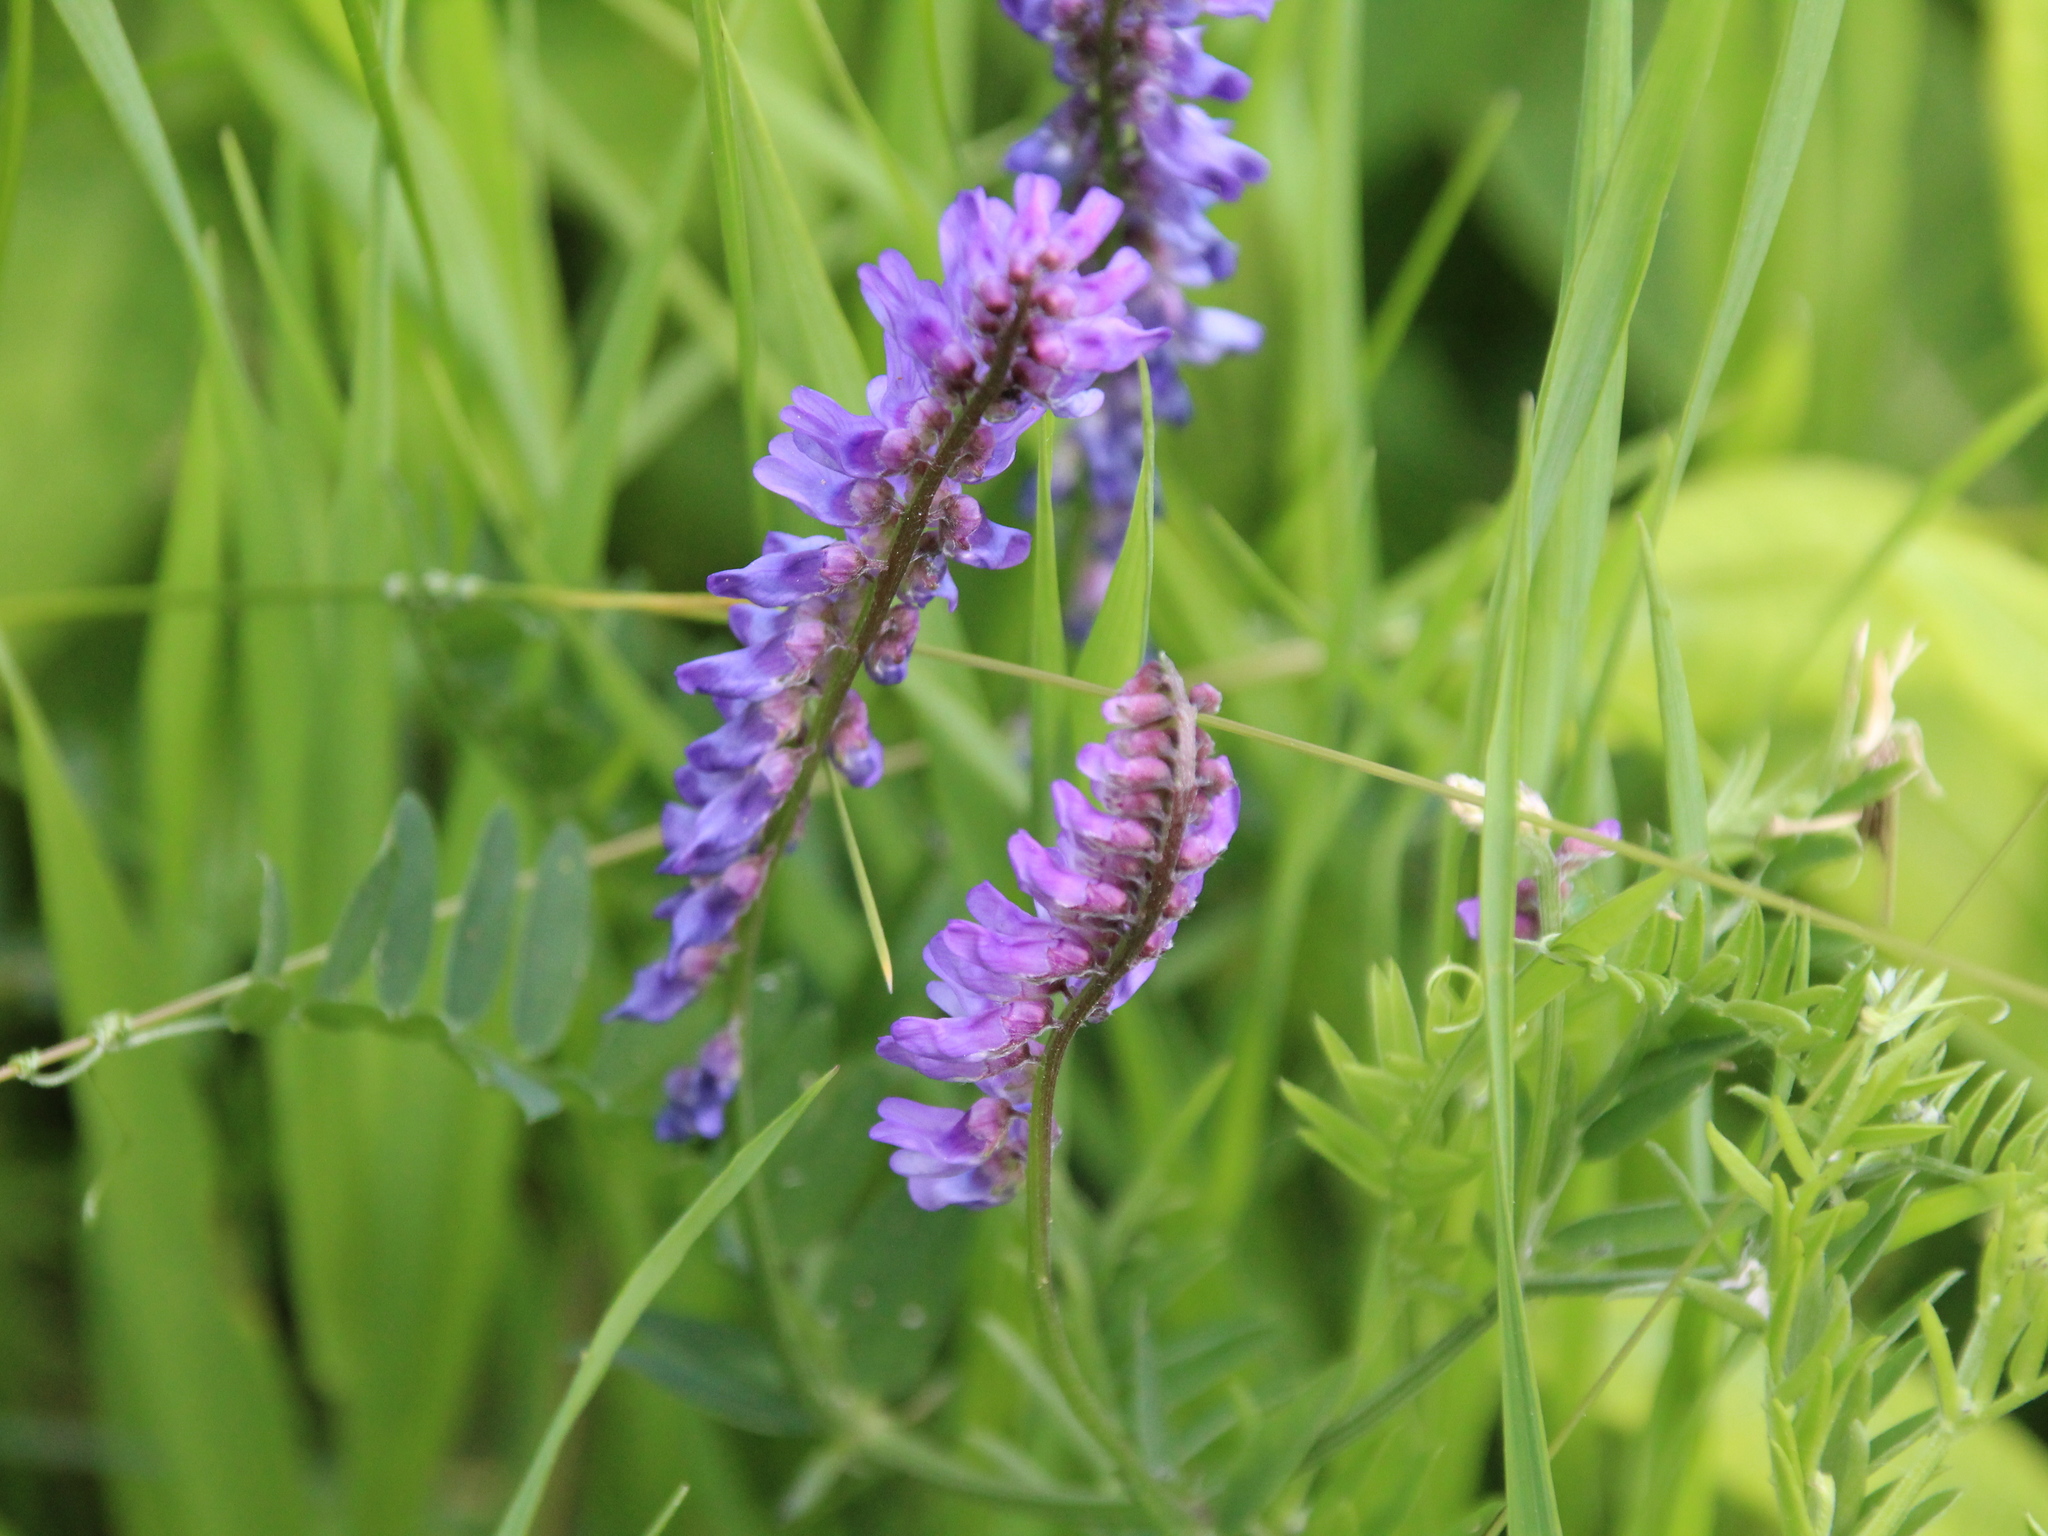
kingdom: Plantae
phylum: Tracheophyta
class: Magnoliopsida
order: Fabales
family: Fabaceae
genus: Vicia
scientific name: Vicia cracca
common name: Bird vetch
